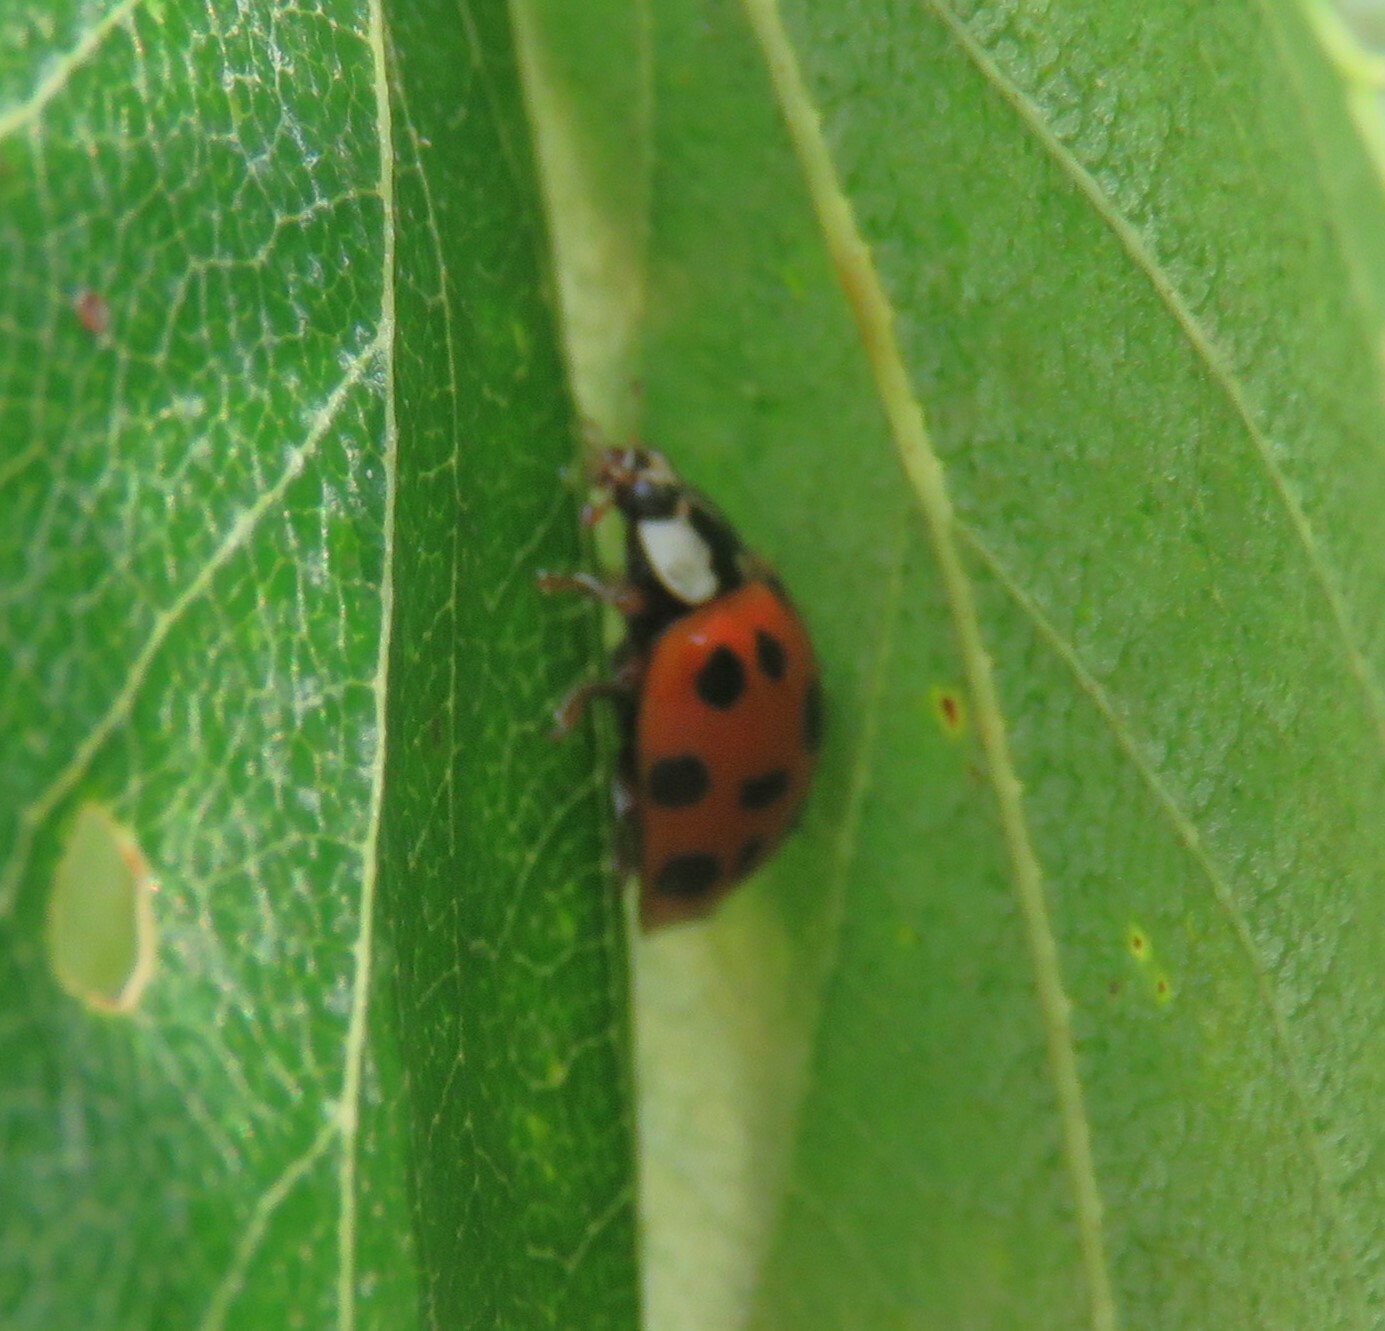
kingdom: Animalia
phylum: Arthropoda
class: Insecta
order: Coleoptera
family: Coccinellidae
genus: Harmonia
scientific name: Harmonia axyridis
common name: Harlequin ladybird
